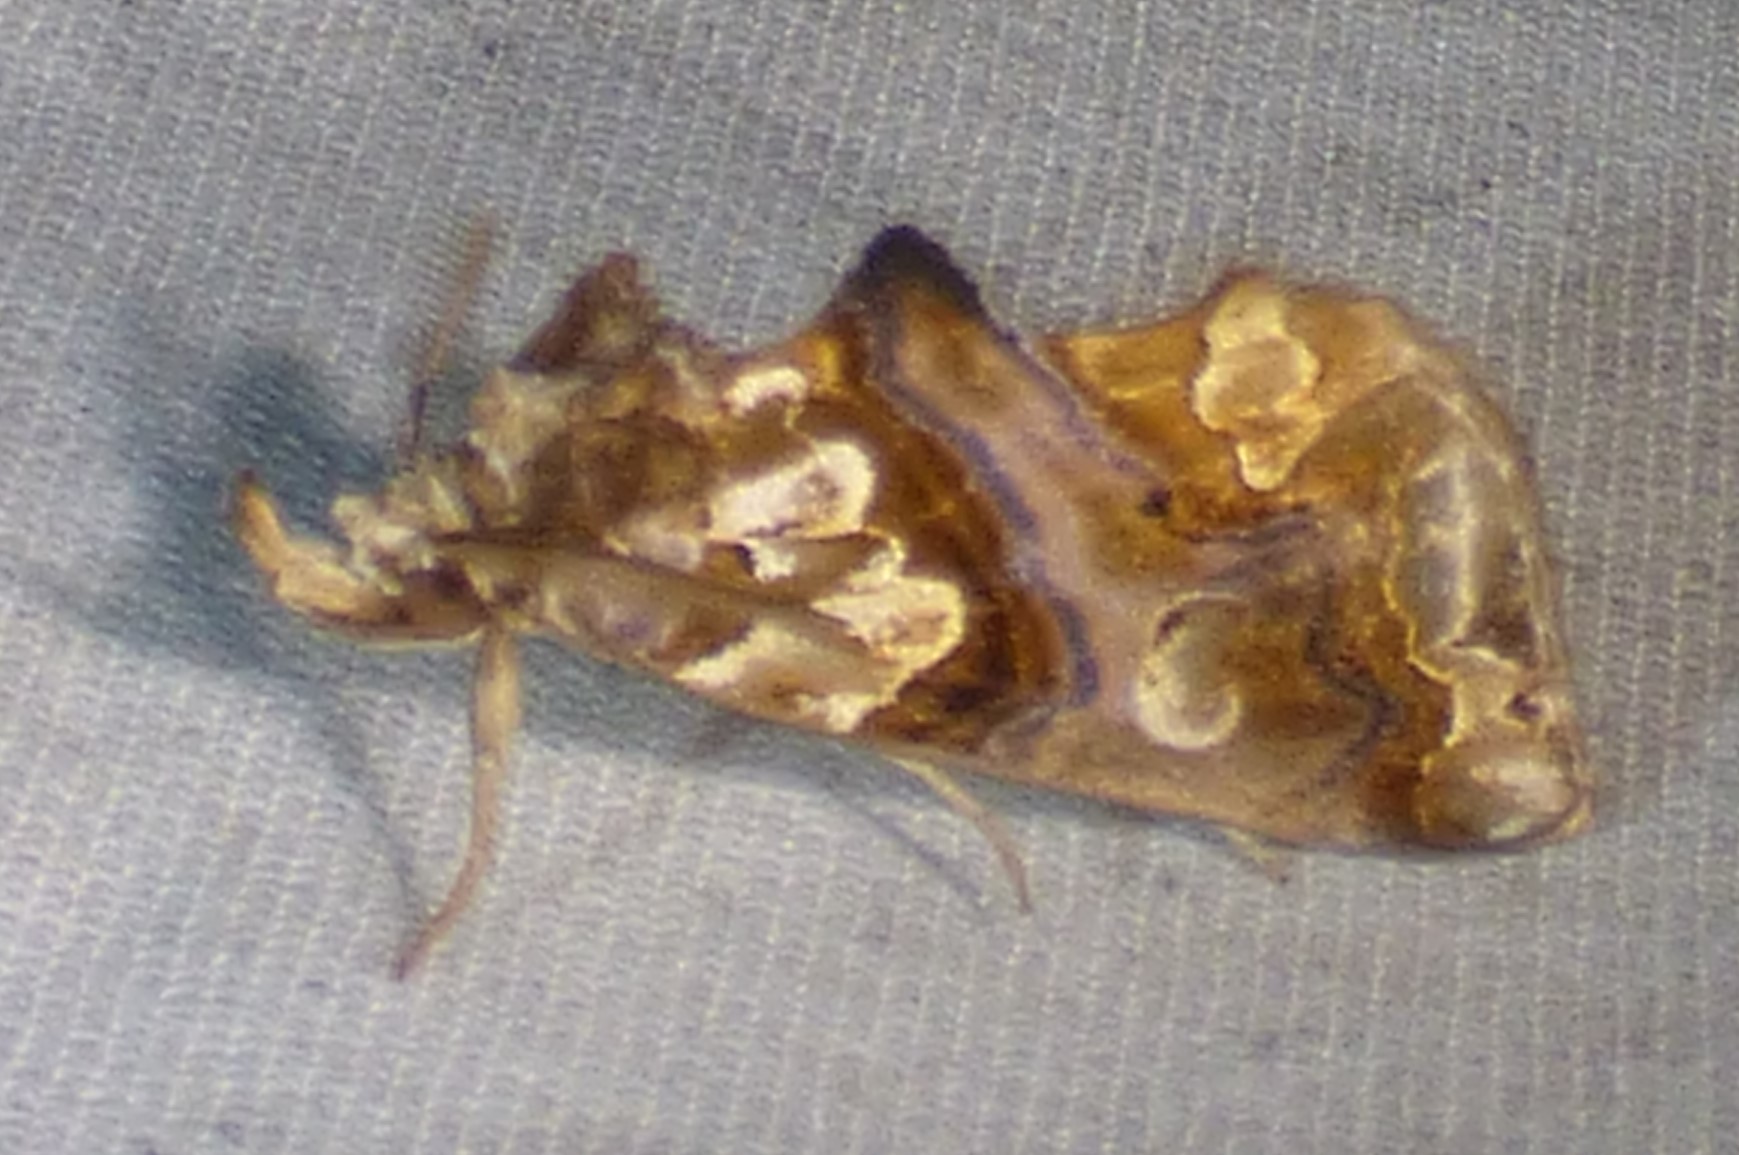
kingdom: Animalia
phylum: Arthropoda
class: Insecta
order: Lepidoptera
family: Erebidae
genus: Plusiodonta
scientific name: Plusiodonta compressipalpis
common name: Moonseed moth
